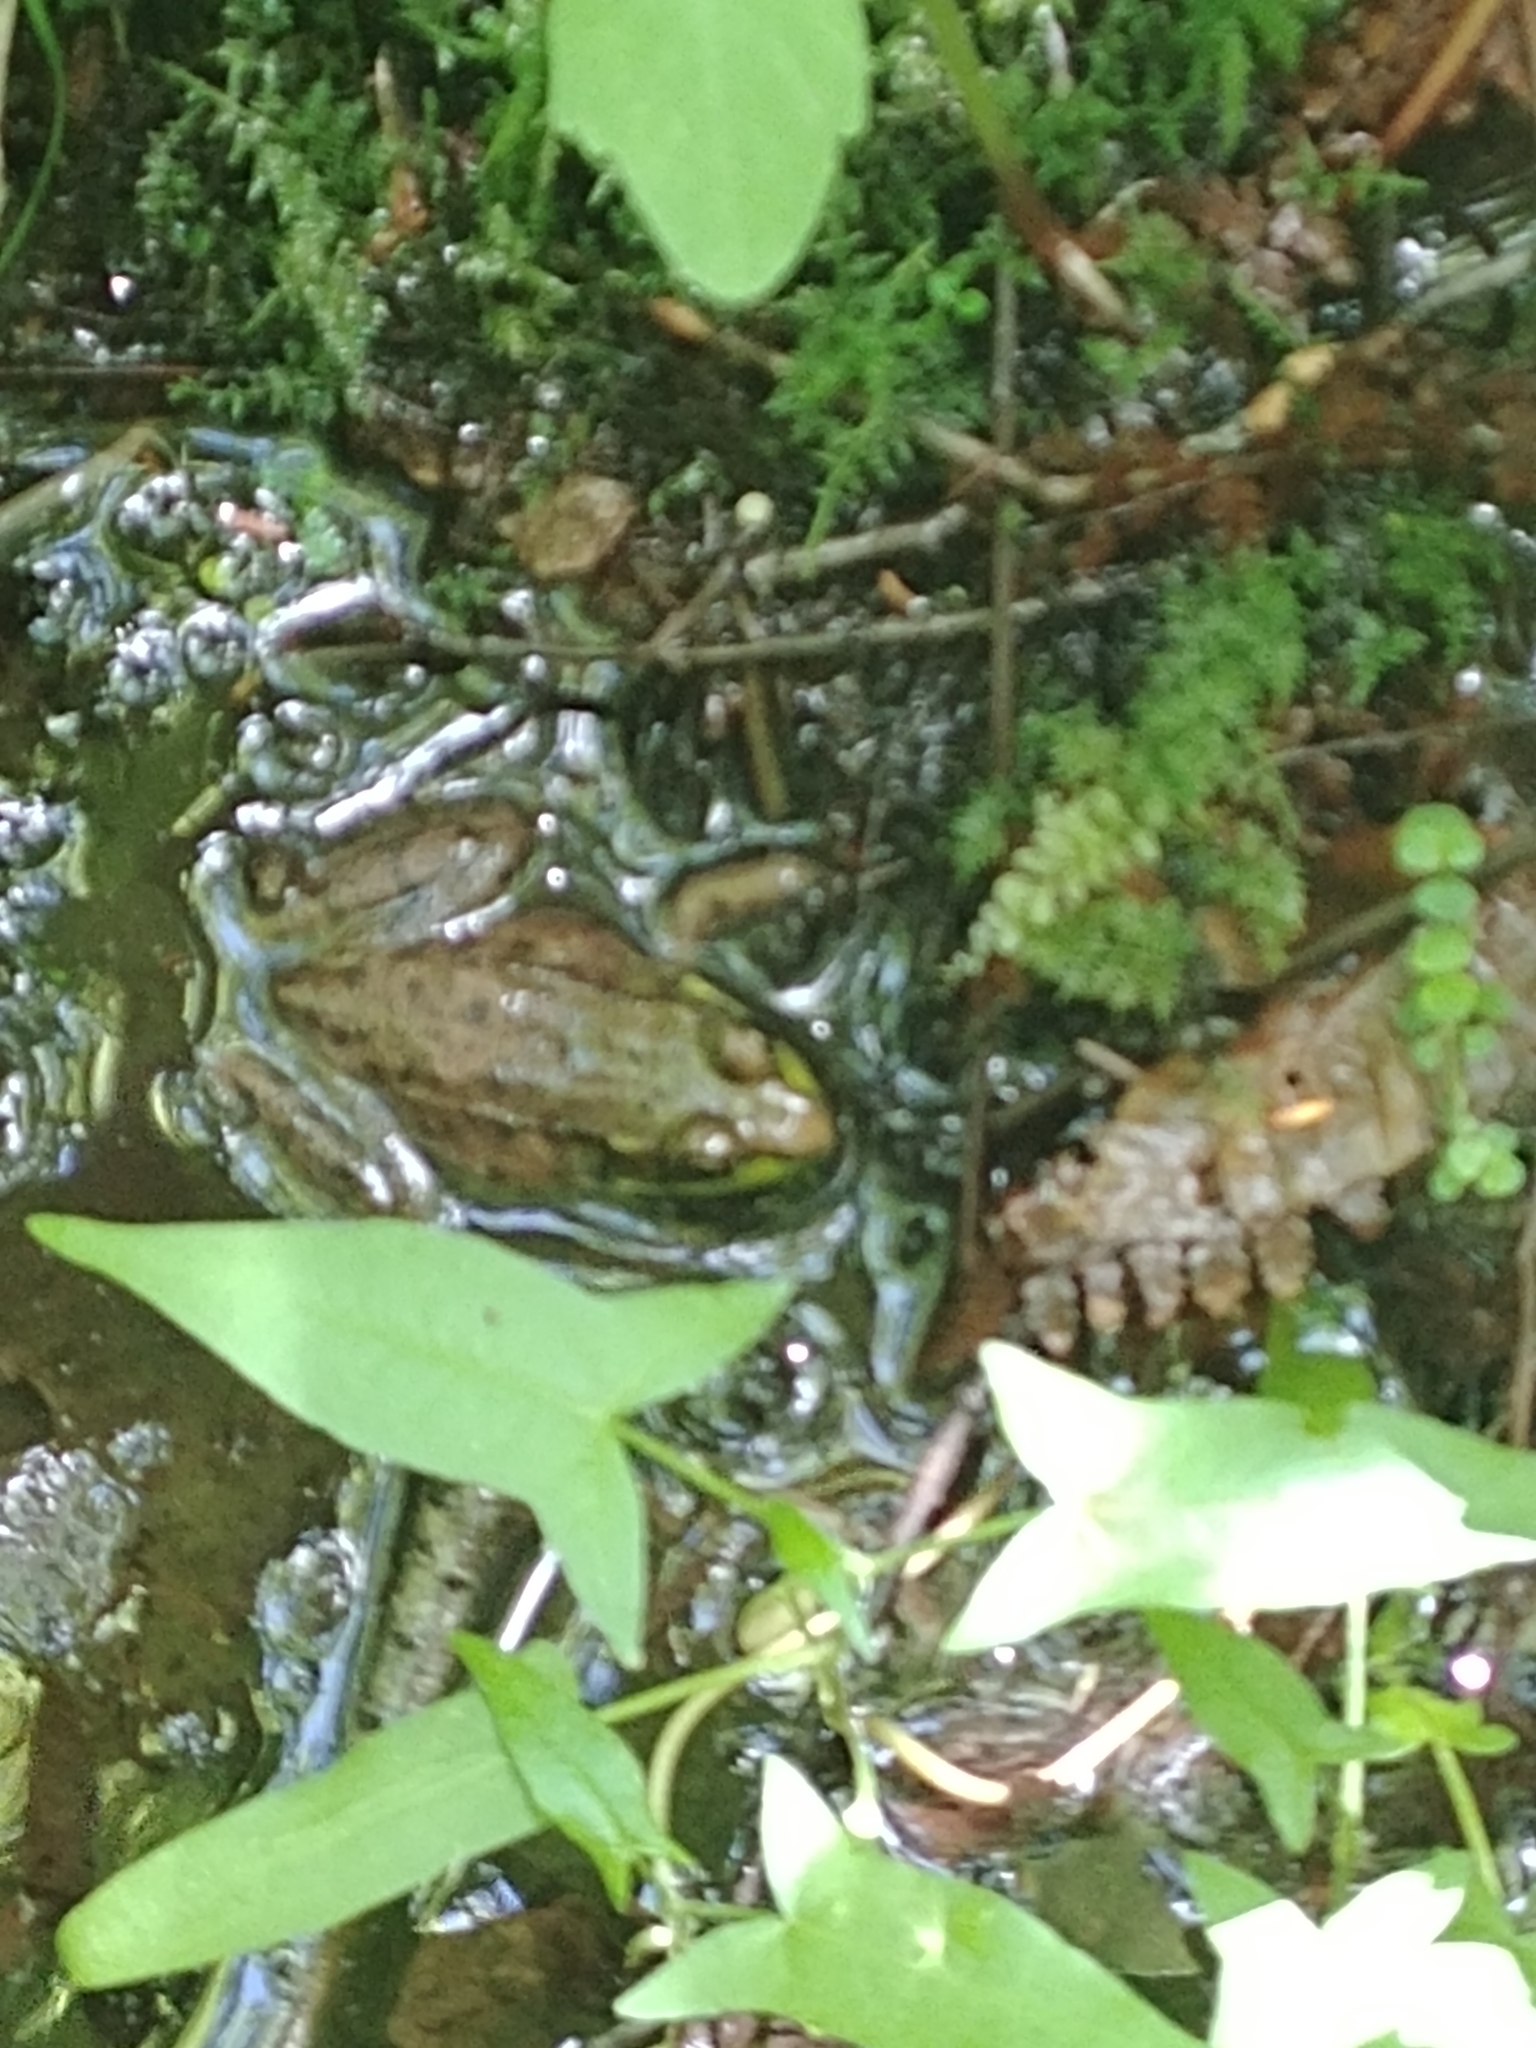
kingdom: Animalia
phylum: Chordata
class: Amphibia
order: Anura
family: Ranidae
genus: Lithobates
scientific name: Lithobates clamitans
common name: Green frog
